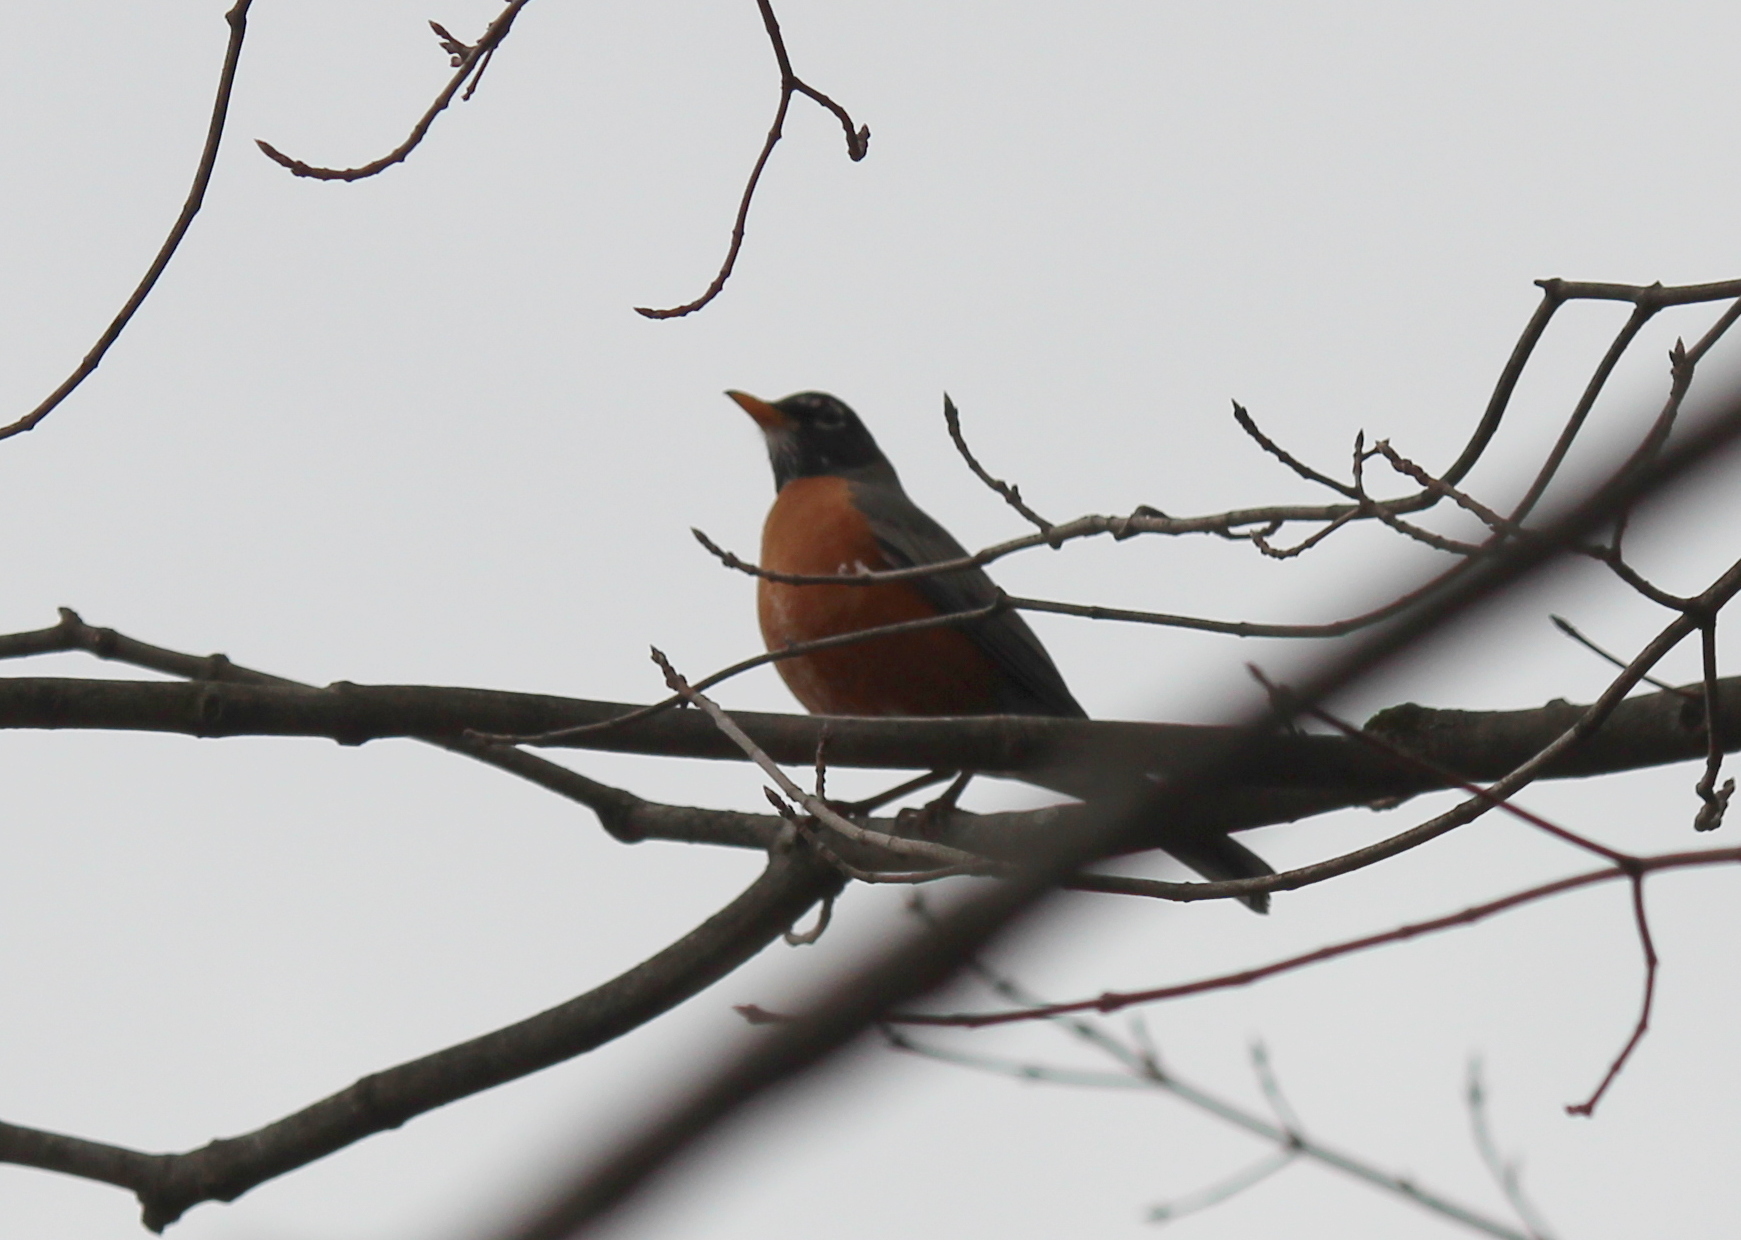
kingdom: Animalia
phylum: Chordata
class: Aves
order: Passeriformes
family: Turdidae
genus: Turdus
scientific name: Turdus migratorius
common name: American robin
